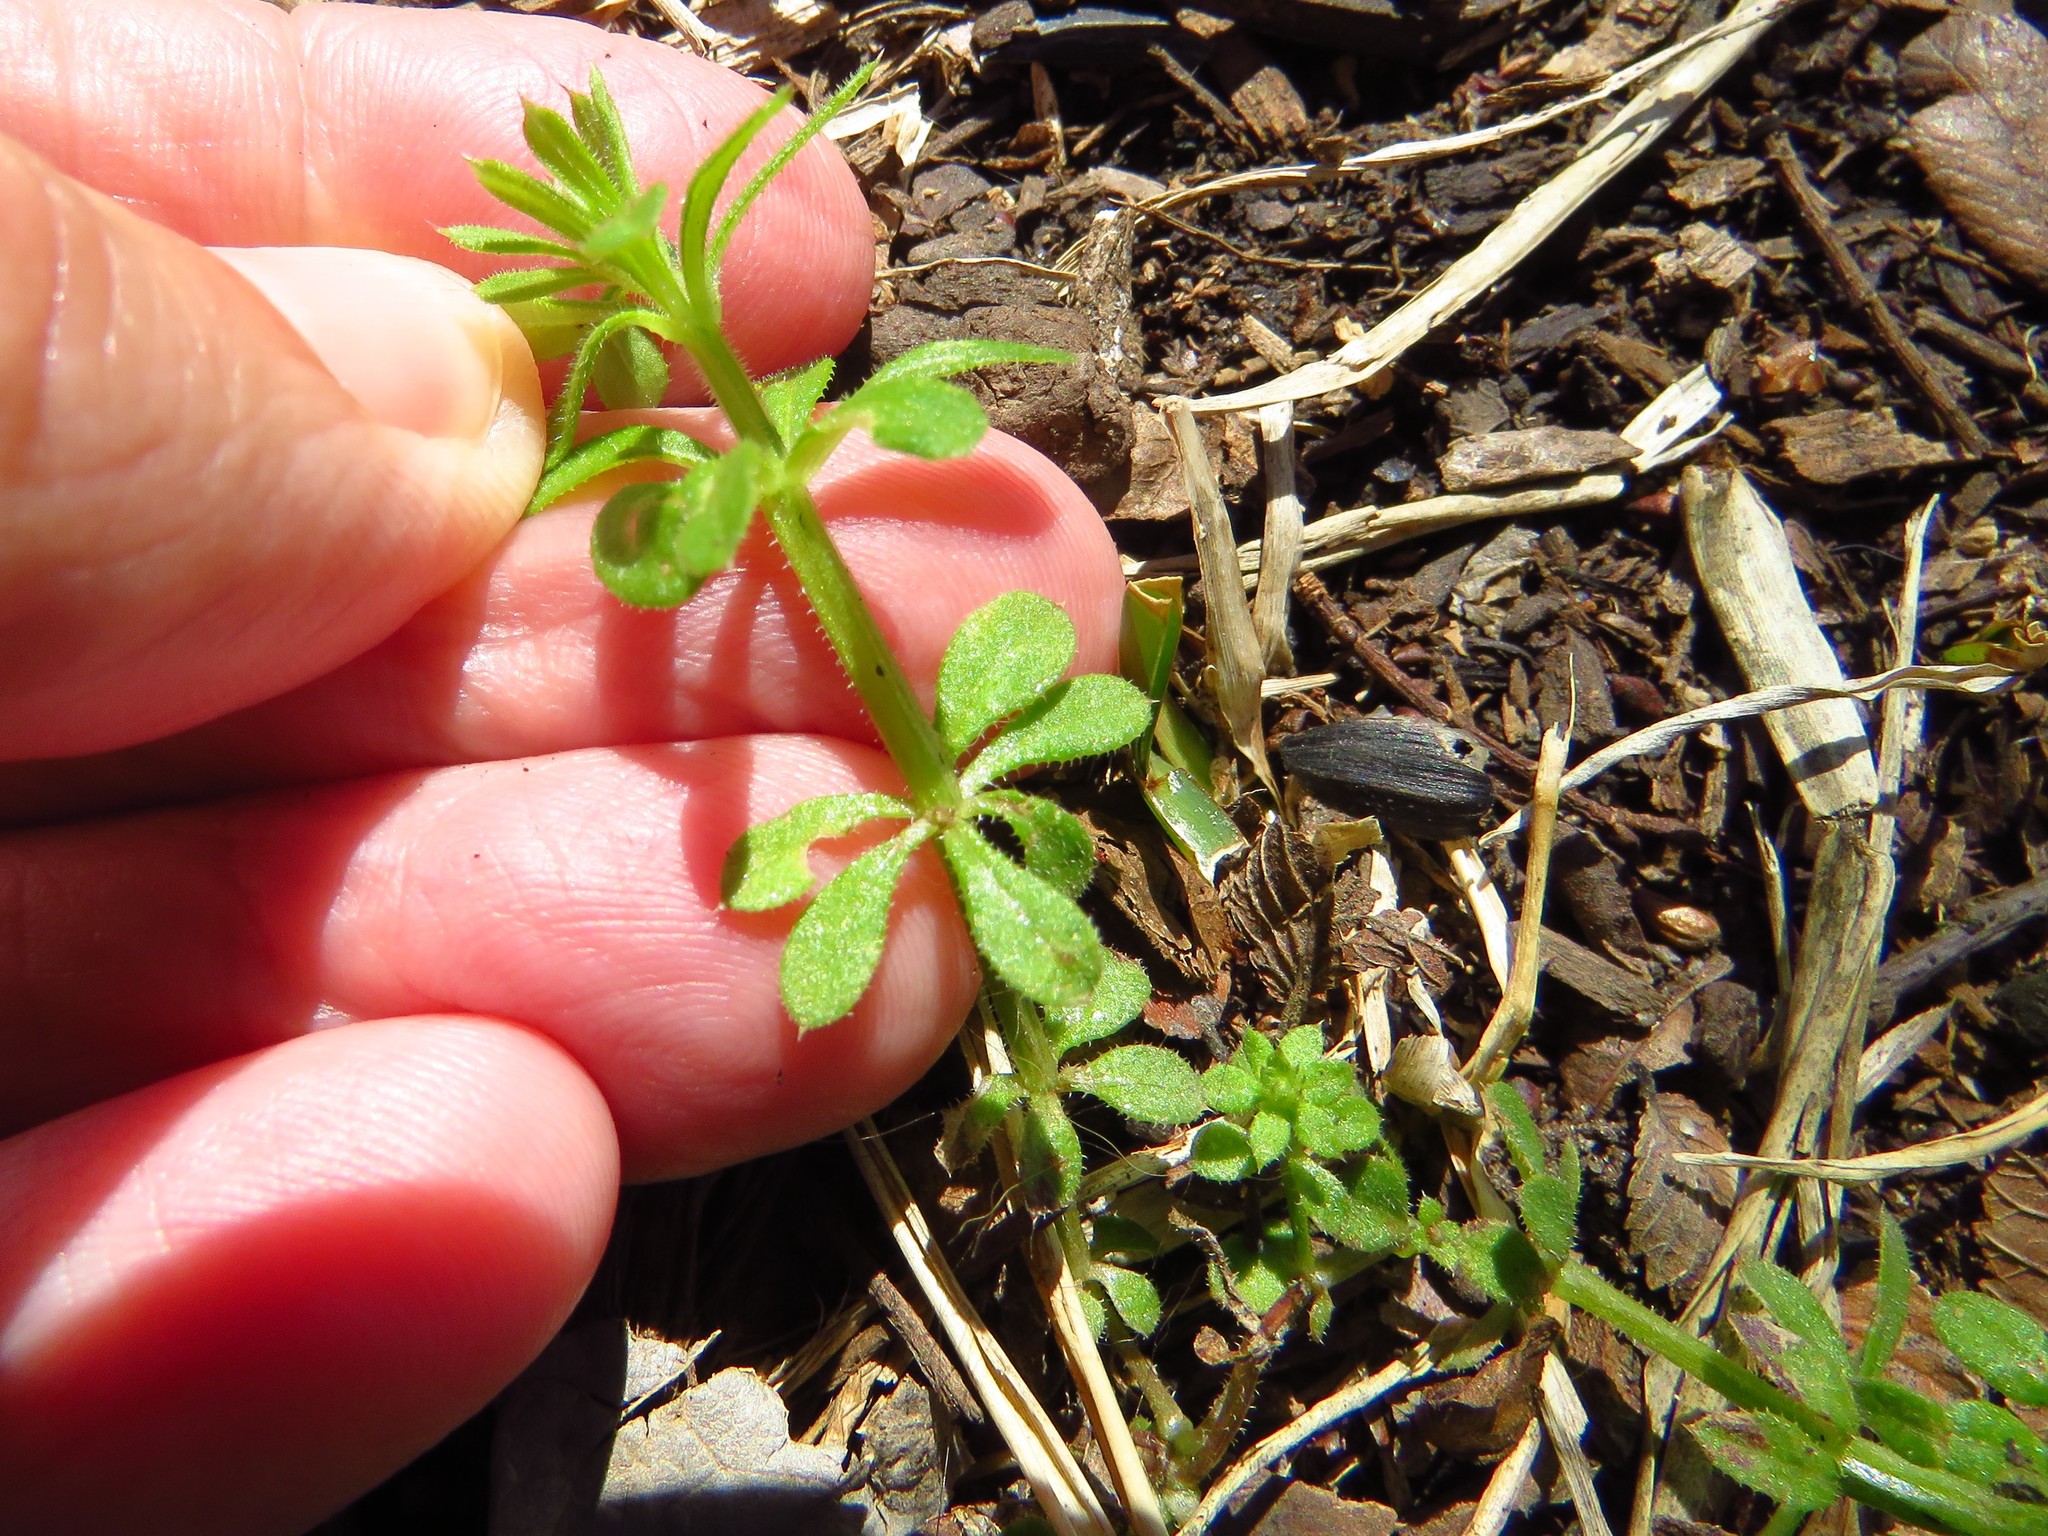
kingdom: Plantae
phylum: Tracheophyta
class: Magnoliopsida
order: Gentianales
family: Rubiaceae
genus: Galium
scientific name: Galium aparine
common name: Cleavers
